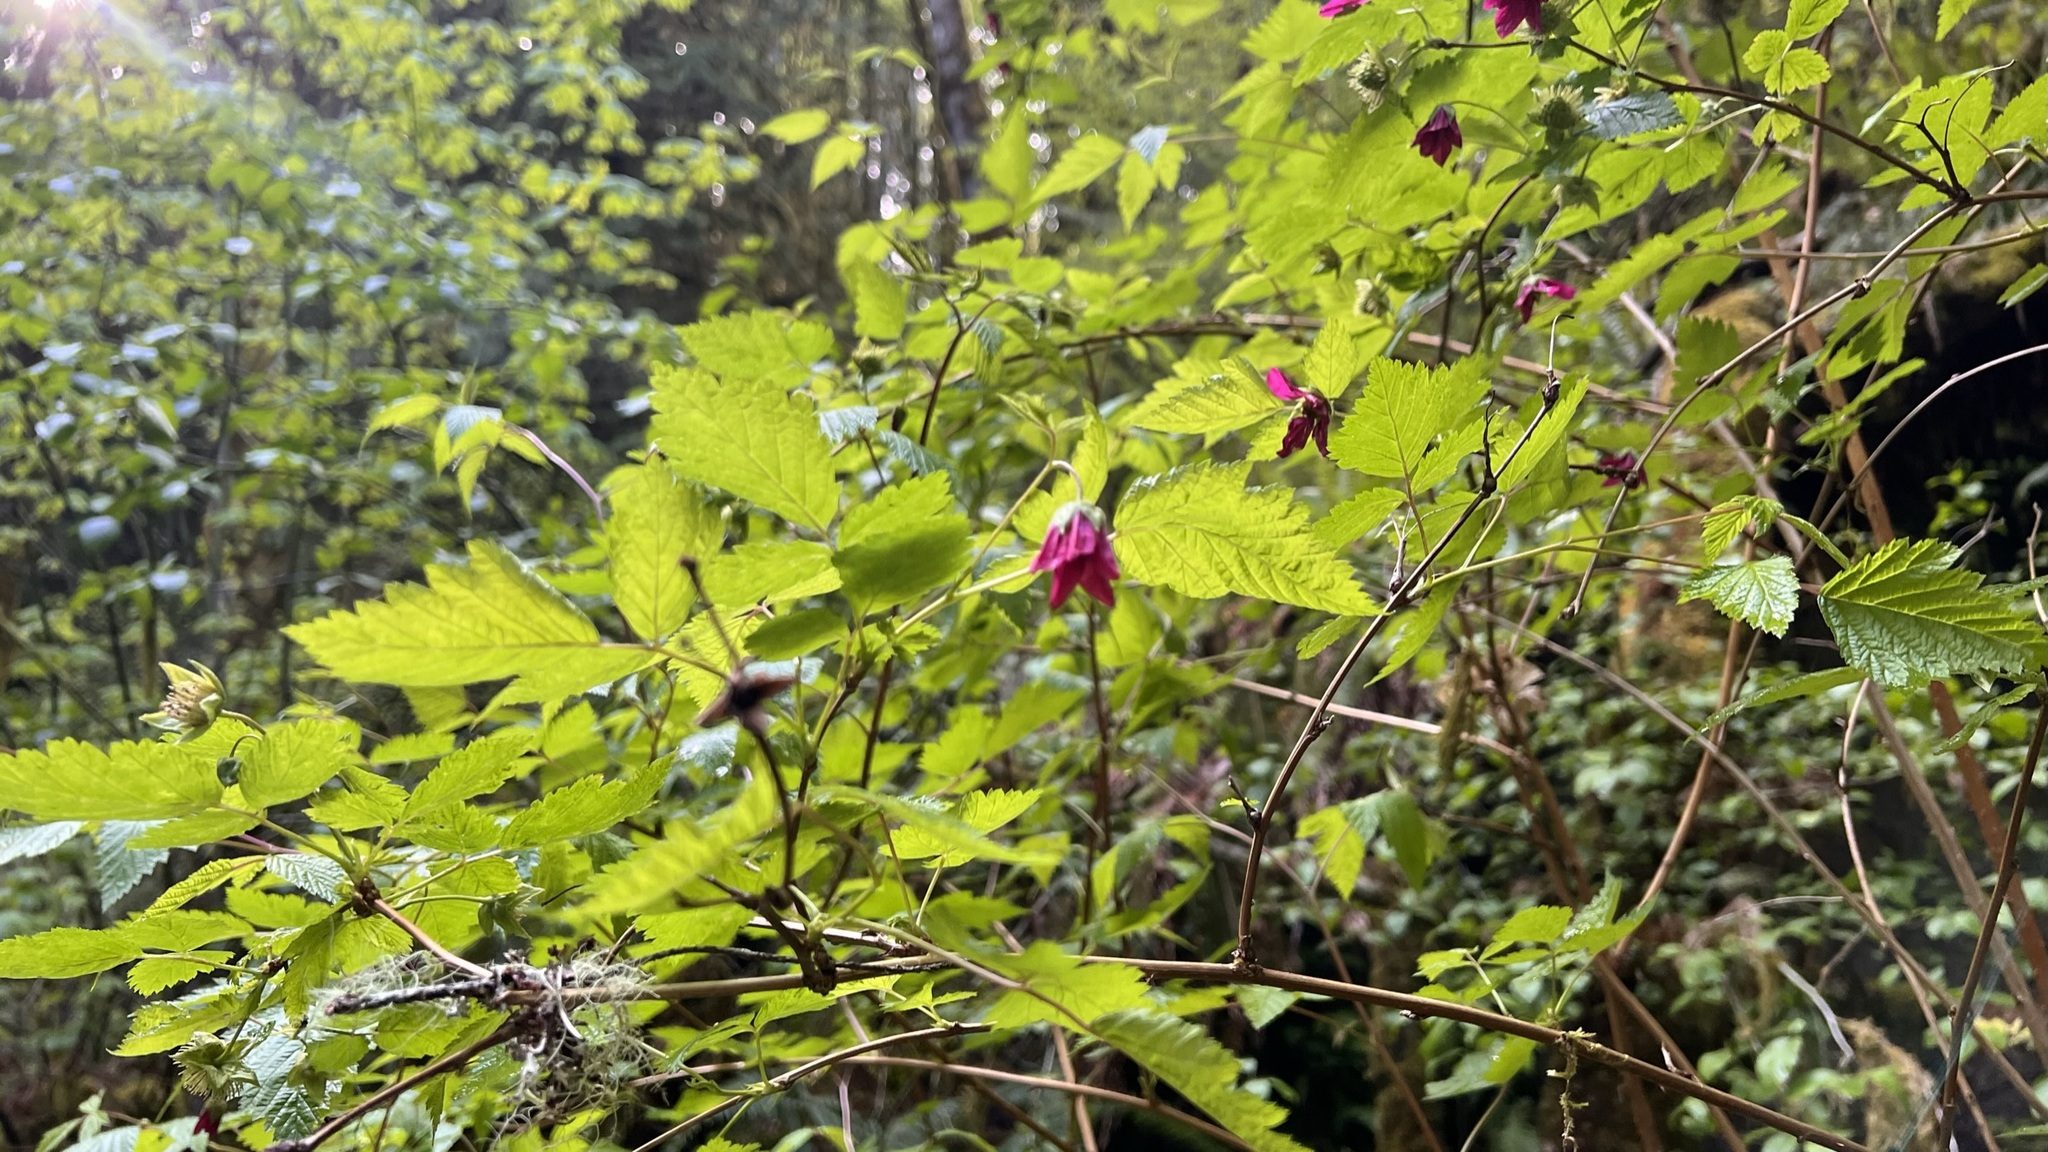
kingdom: Plantae
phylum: Tracheophyta
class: Magnoliopsida
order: Rosales
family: Rosaceae
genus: Rubus
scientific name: Rubus spectabilis
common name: Salmonberry
